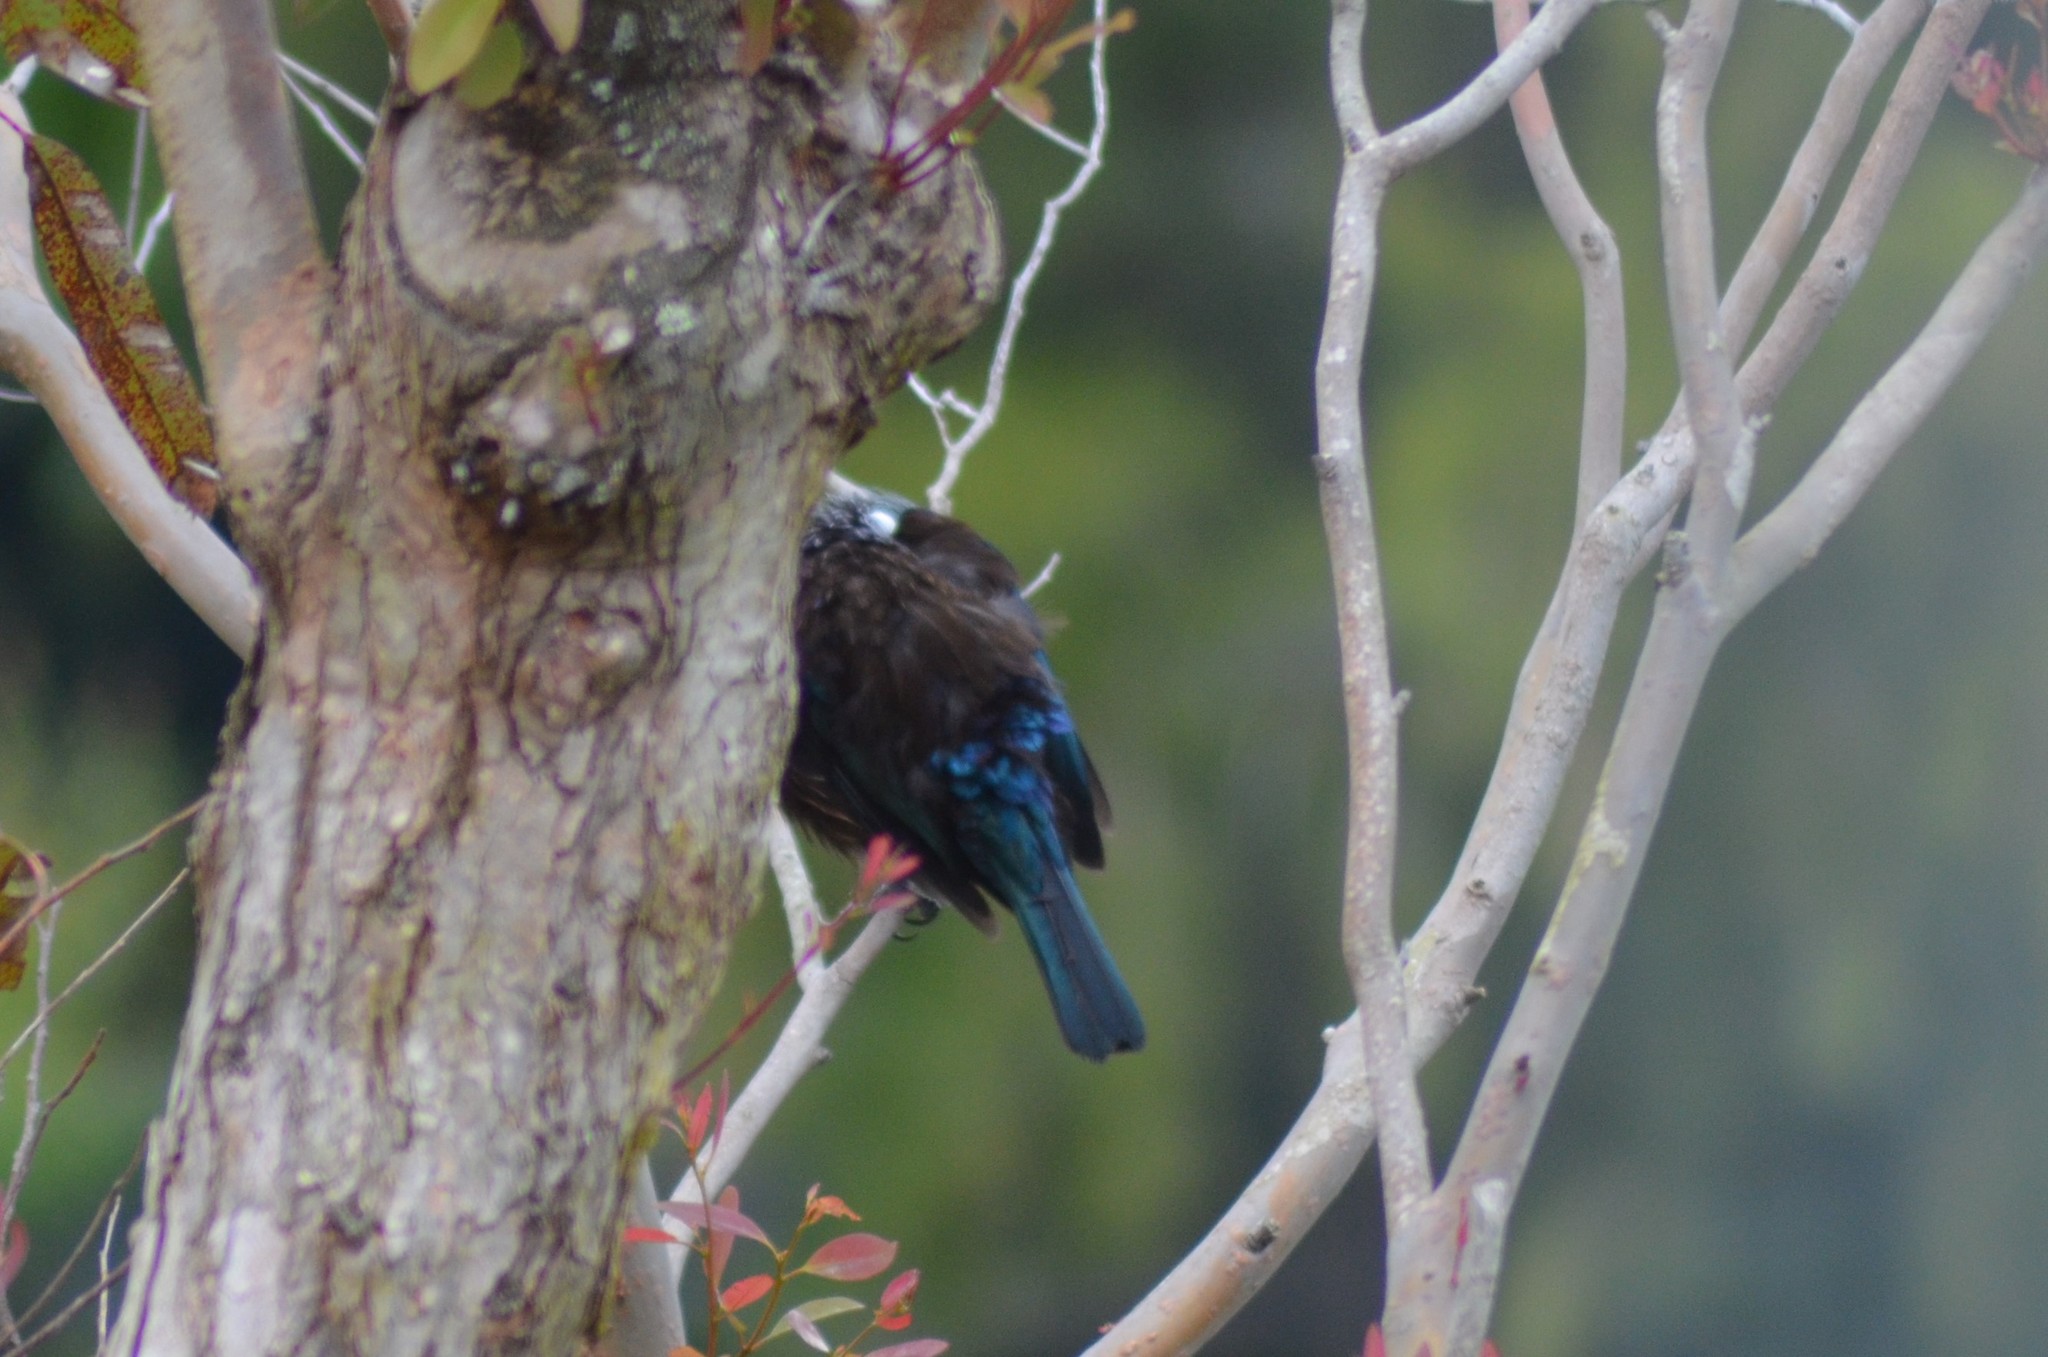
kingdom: Animalia
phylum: Chordata
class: Aves
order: Passeriformes
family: Meliphagidae
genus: Prosthemadera
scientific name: Prosthemadera novaeseelandiae
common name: Tui
